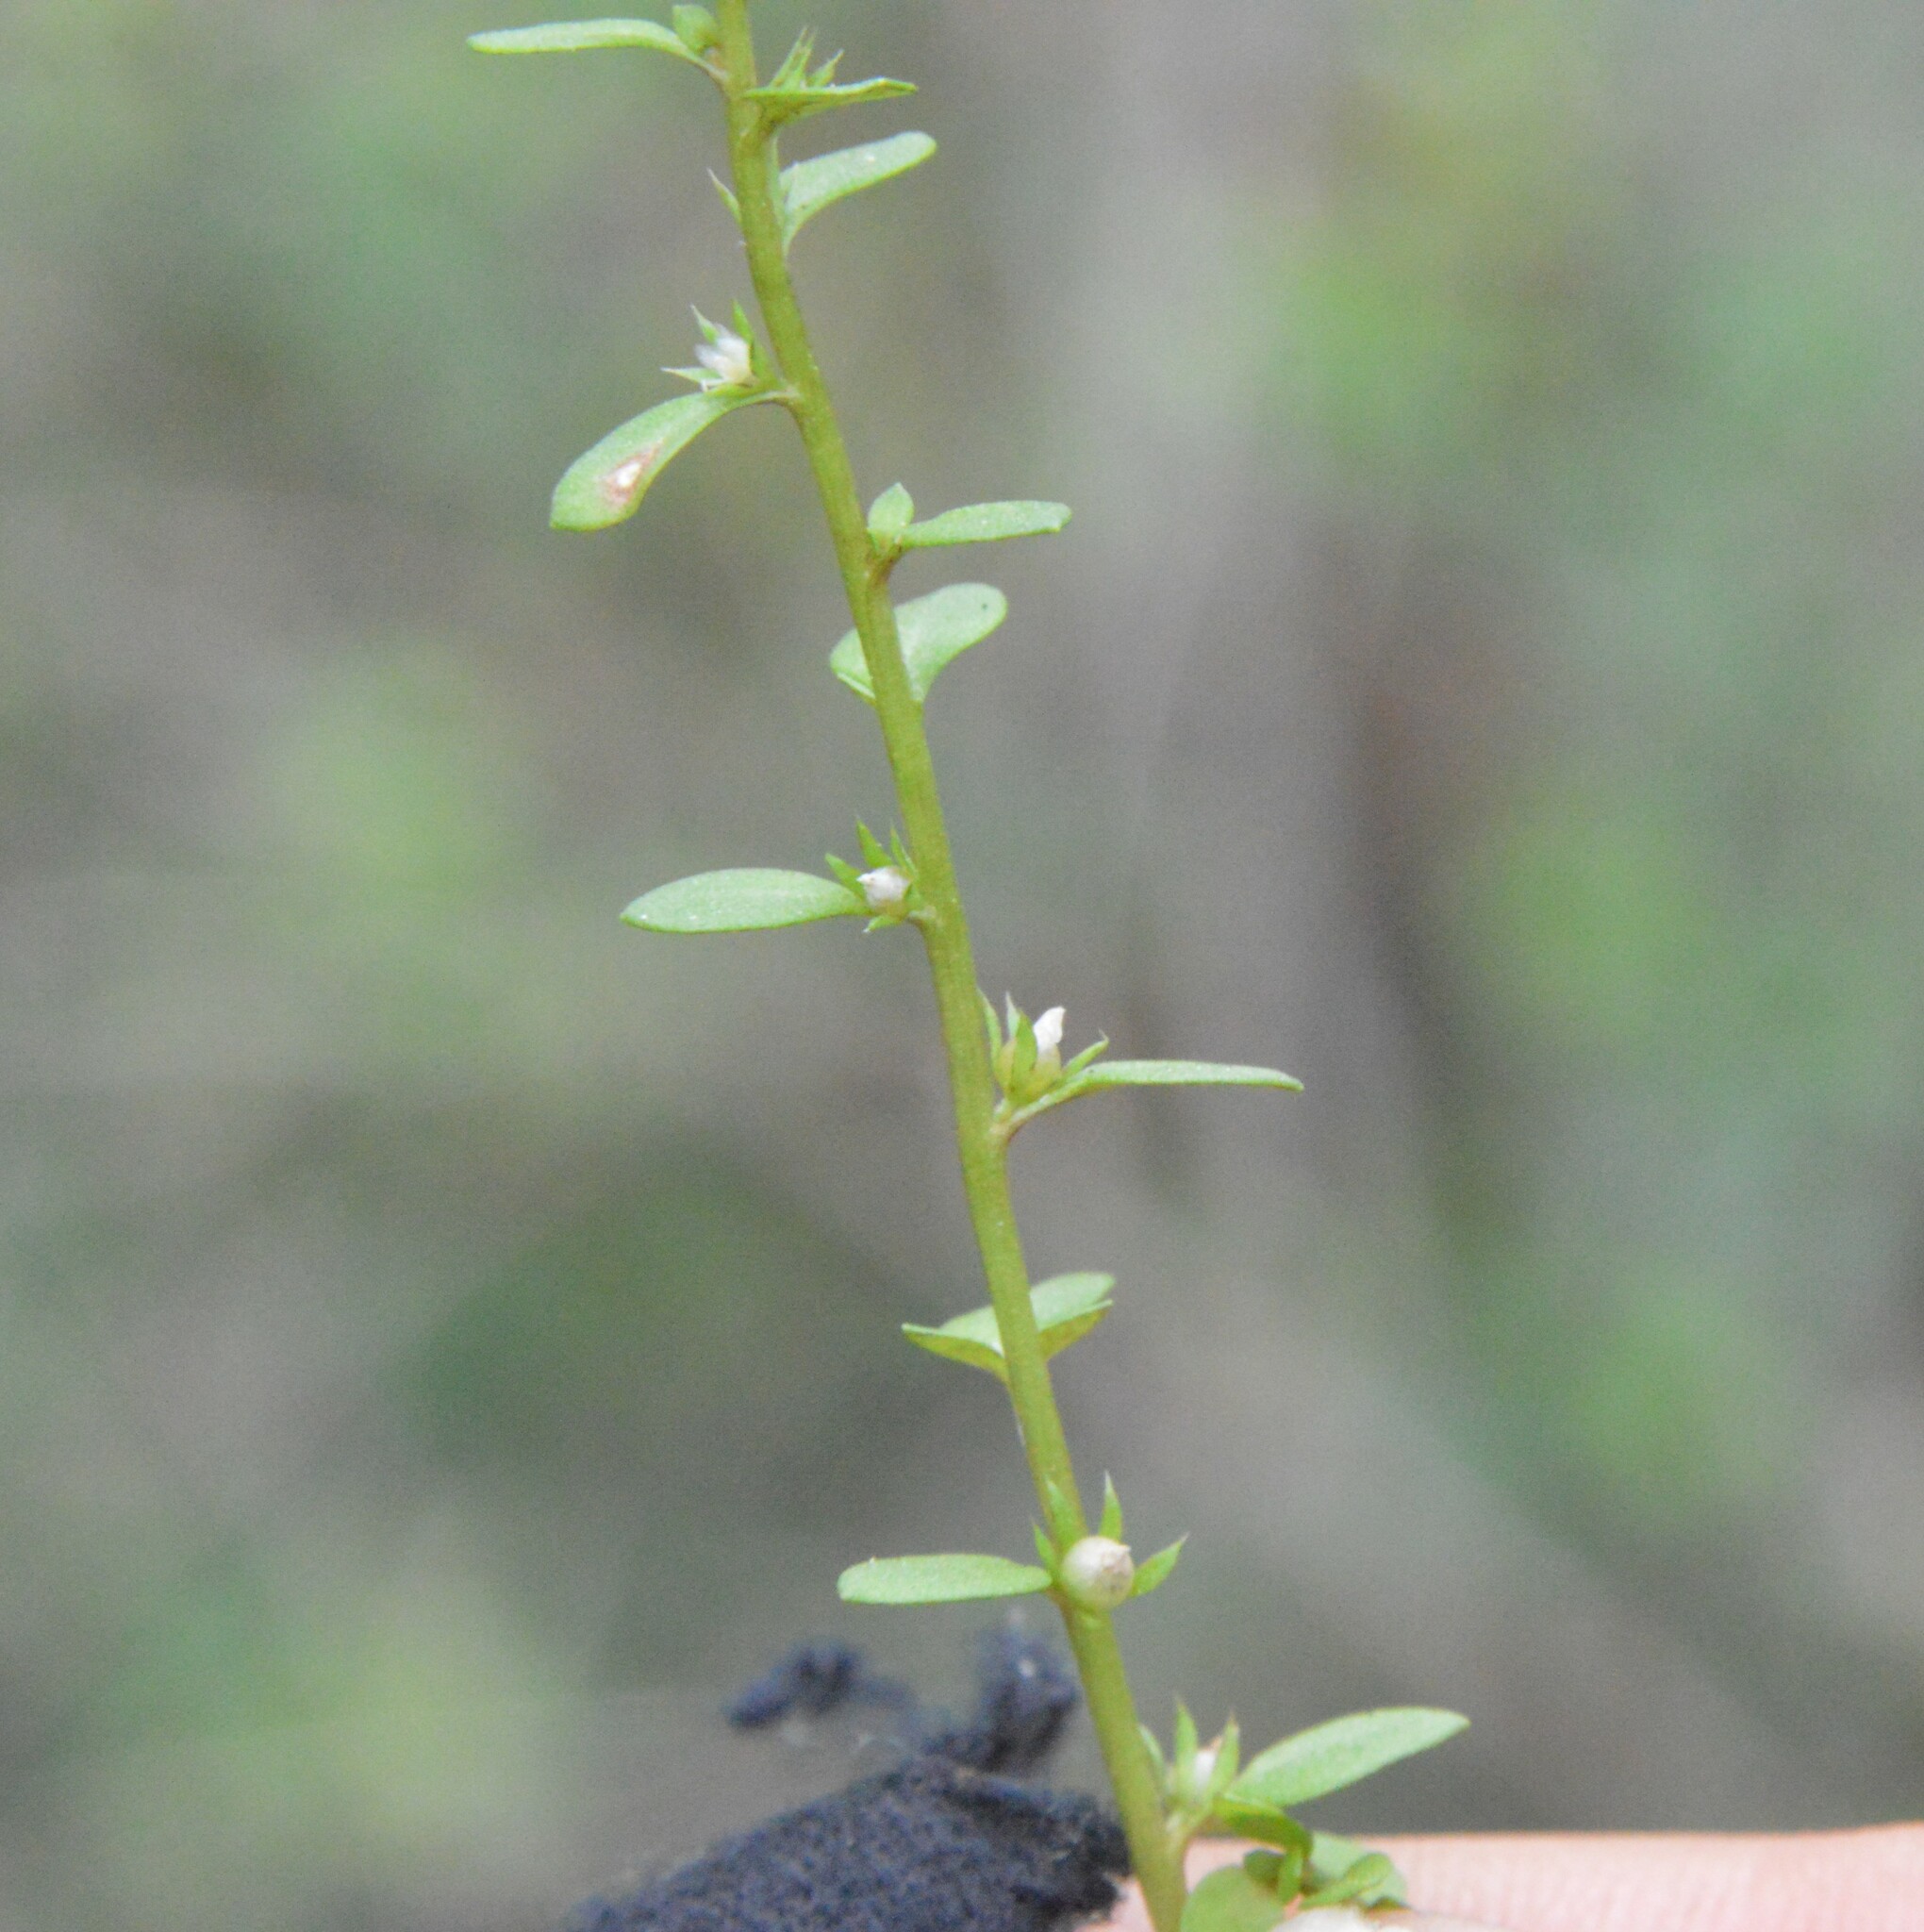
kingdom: Plantae
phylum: Tracheophyta
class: Magnoliopsida
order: Ericales
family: Primulaceae
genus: Lysimachia
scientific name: Lysimachia minima
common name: Chaffweed
